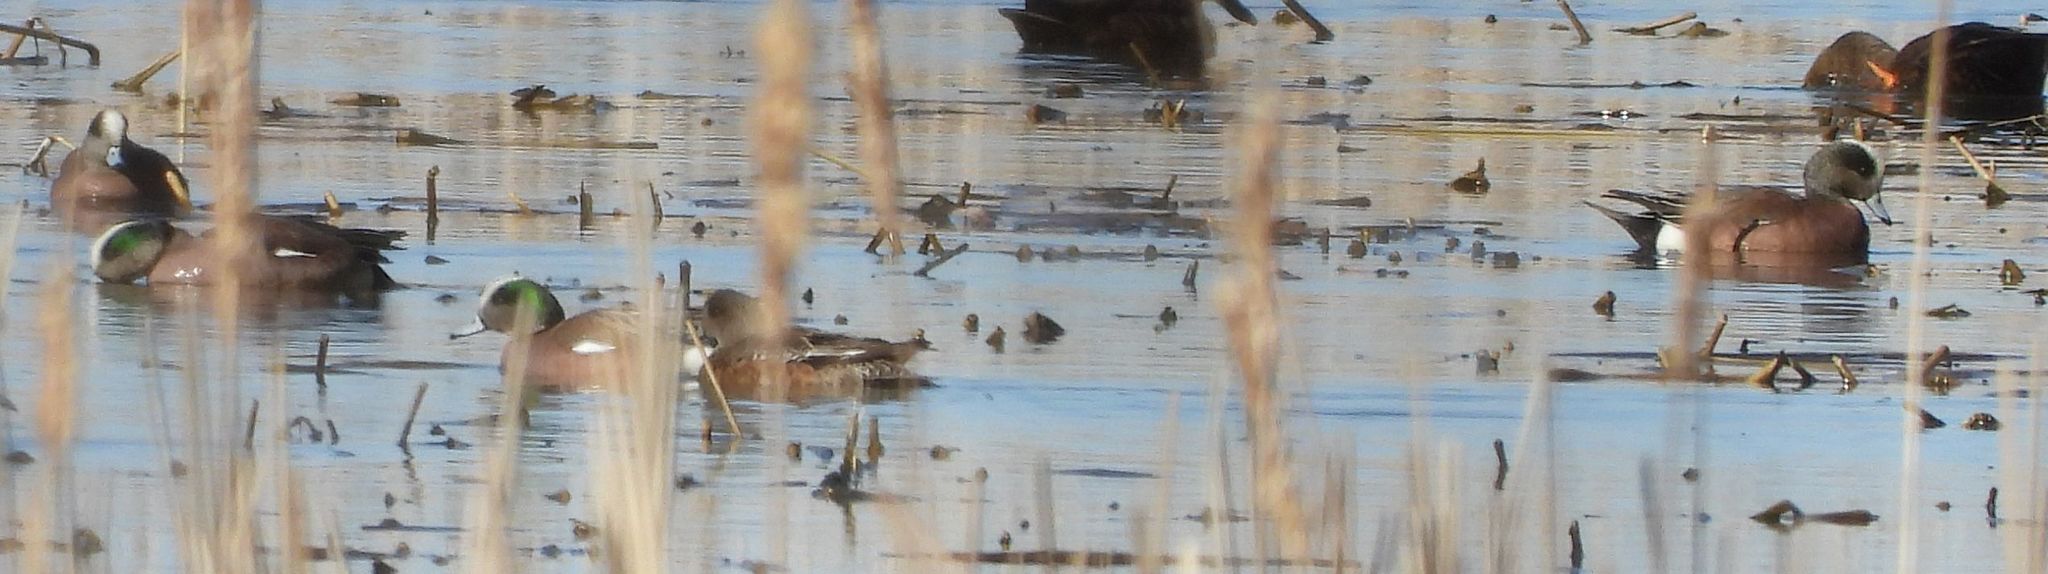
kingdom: Animalia
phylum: Chordata
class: Aves
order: Anseriformes
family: Anatidae
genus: Mareca
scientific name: Mareca americana
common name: American wigeon
